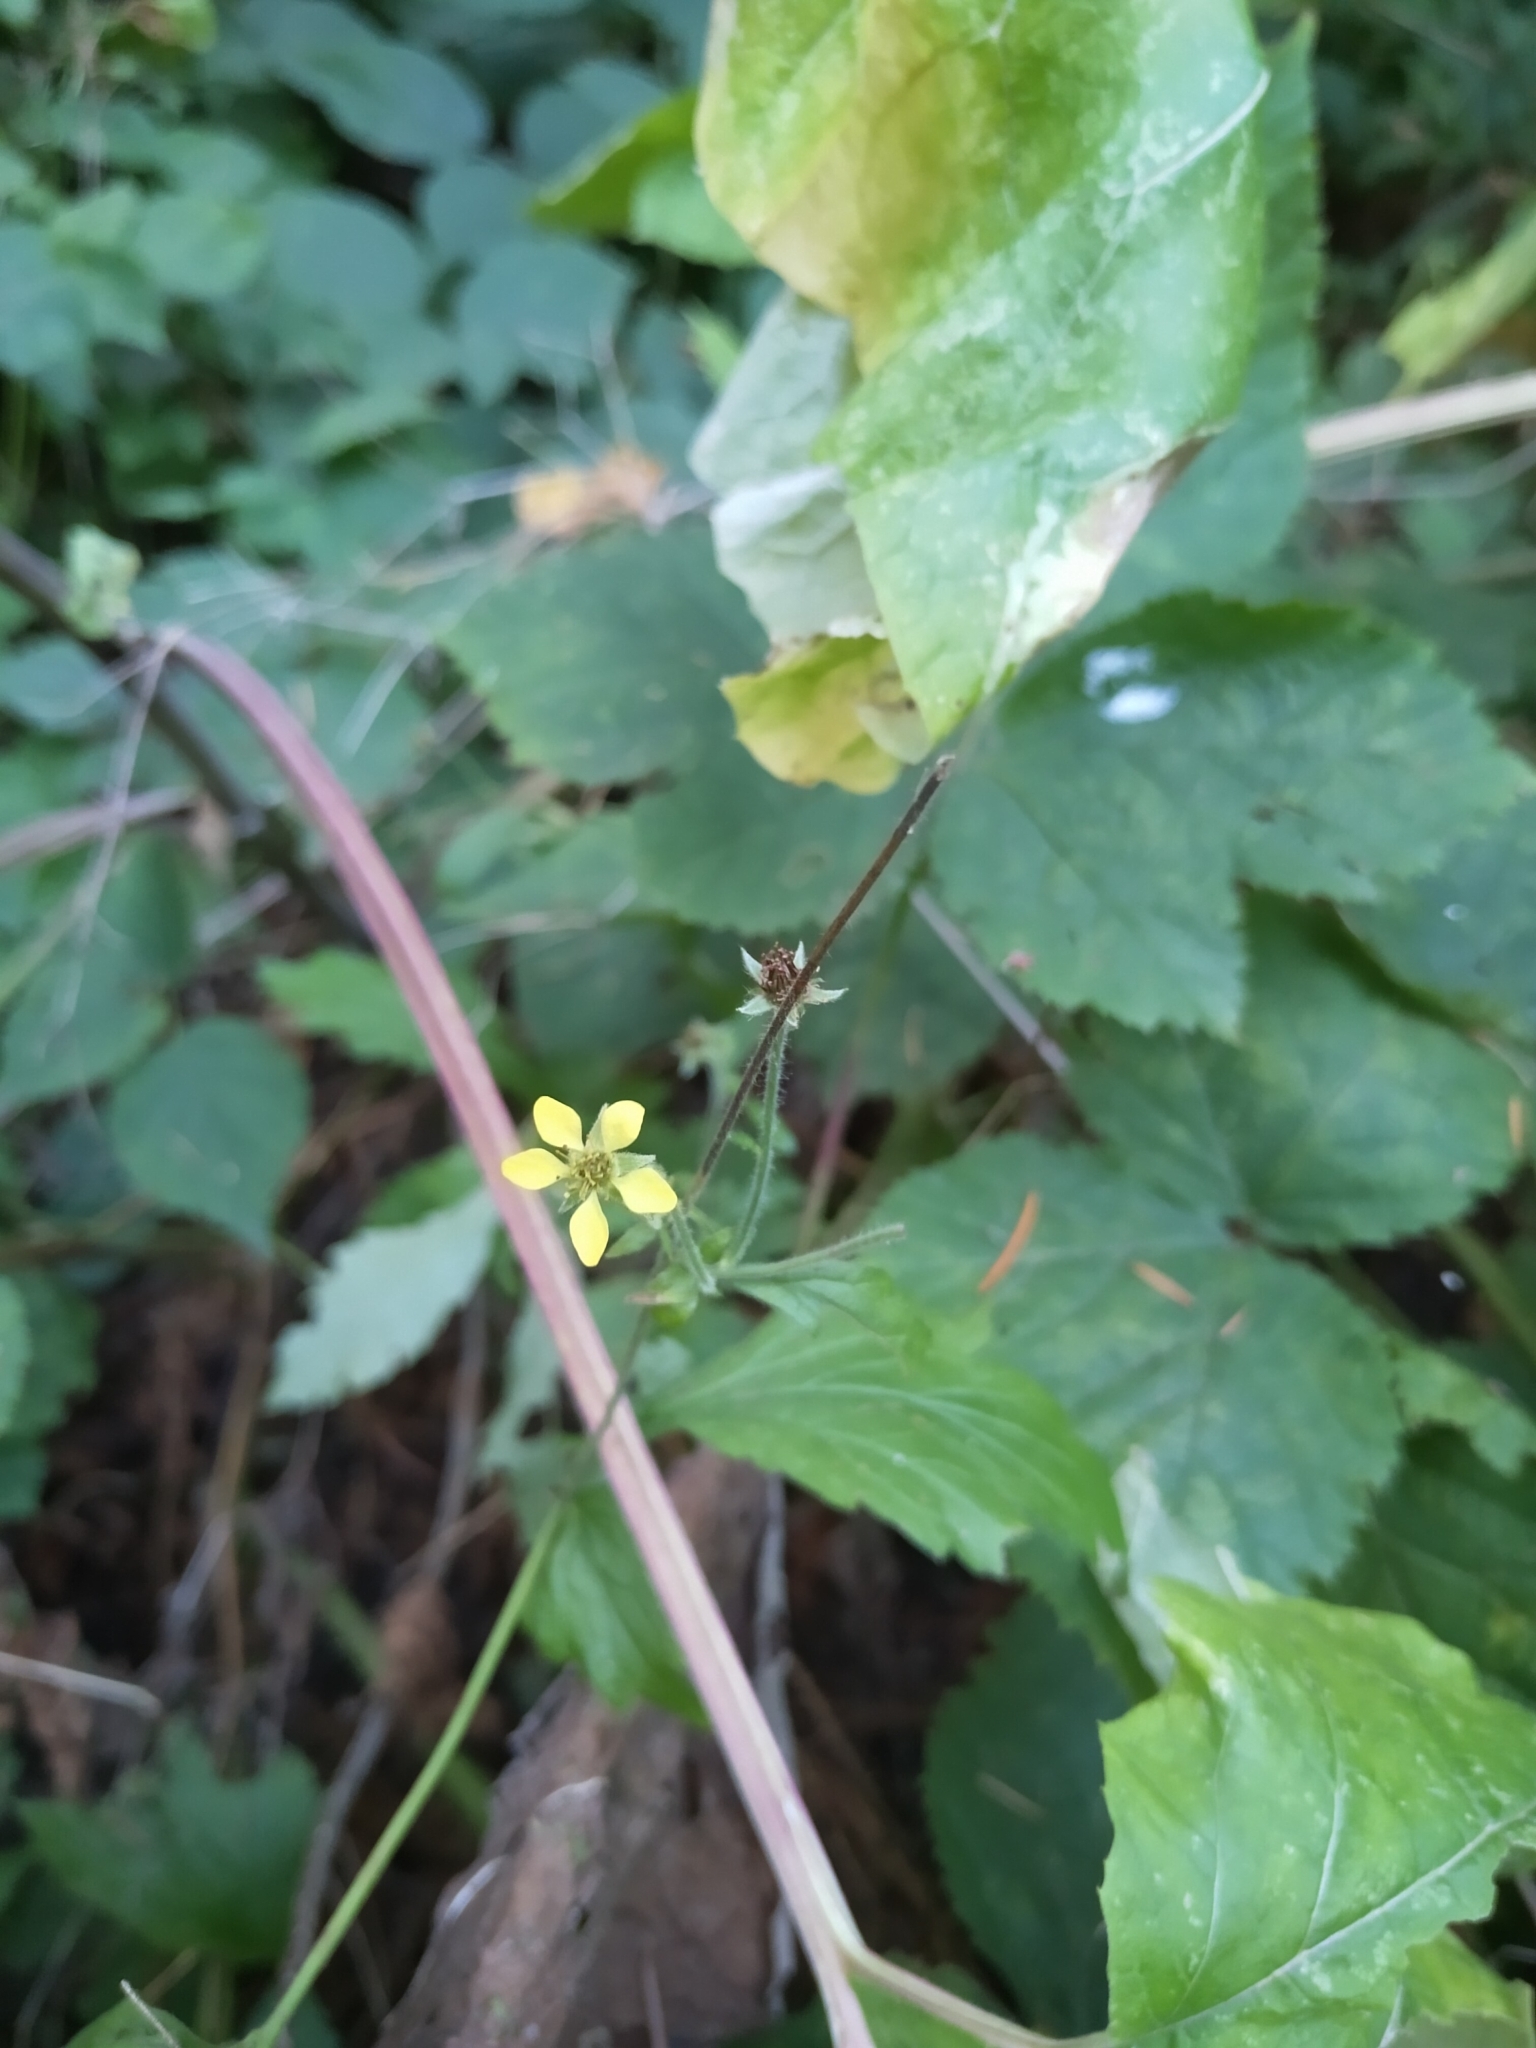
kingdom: Plantae
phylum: Tracheophyta
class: Magnoliopsida
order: Rosales
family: Rosaceae
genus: Geum
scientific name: Geum urbanum
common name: Wood avens
